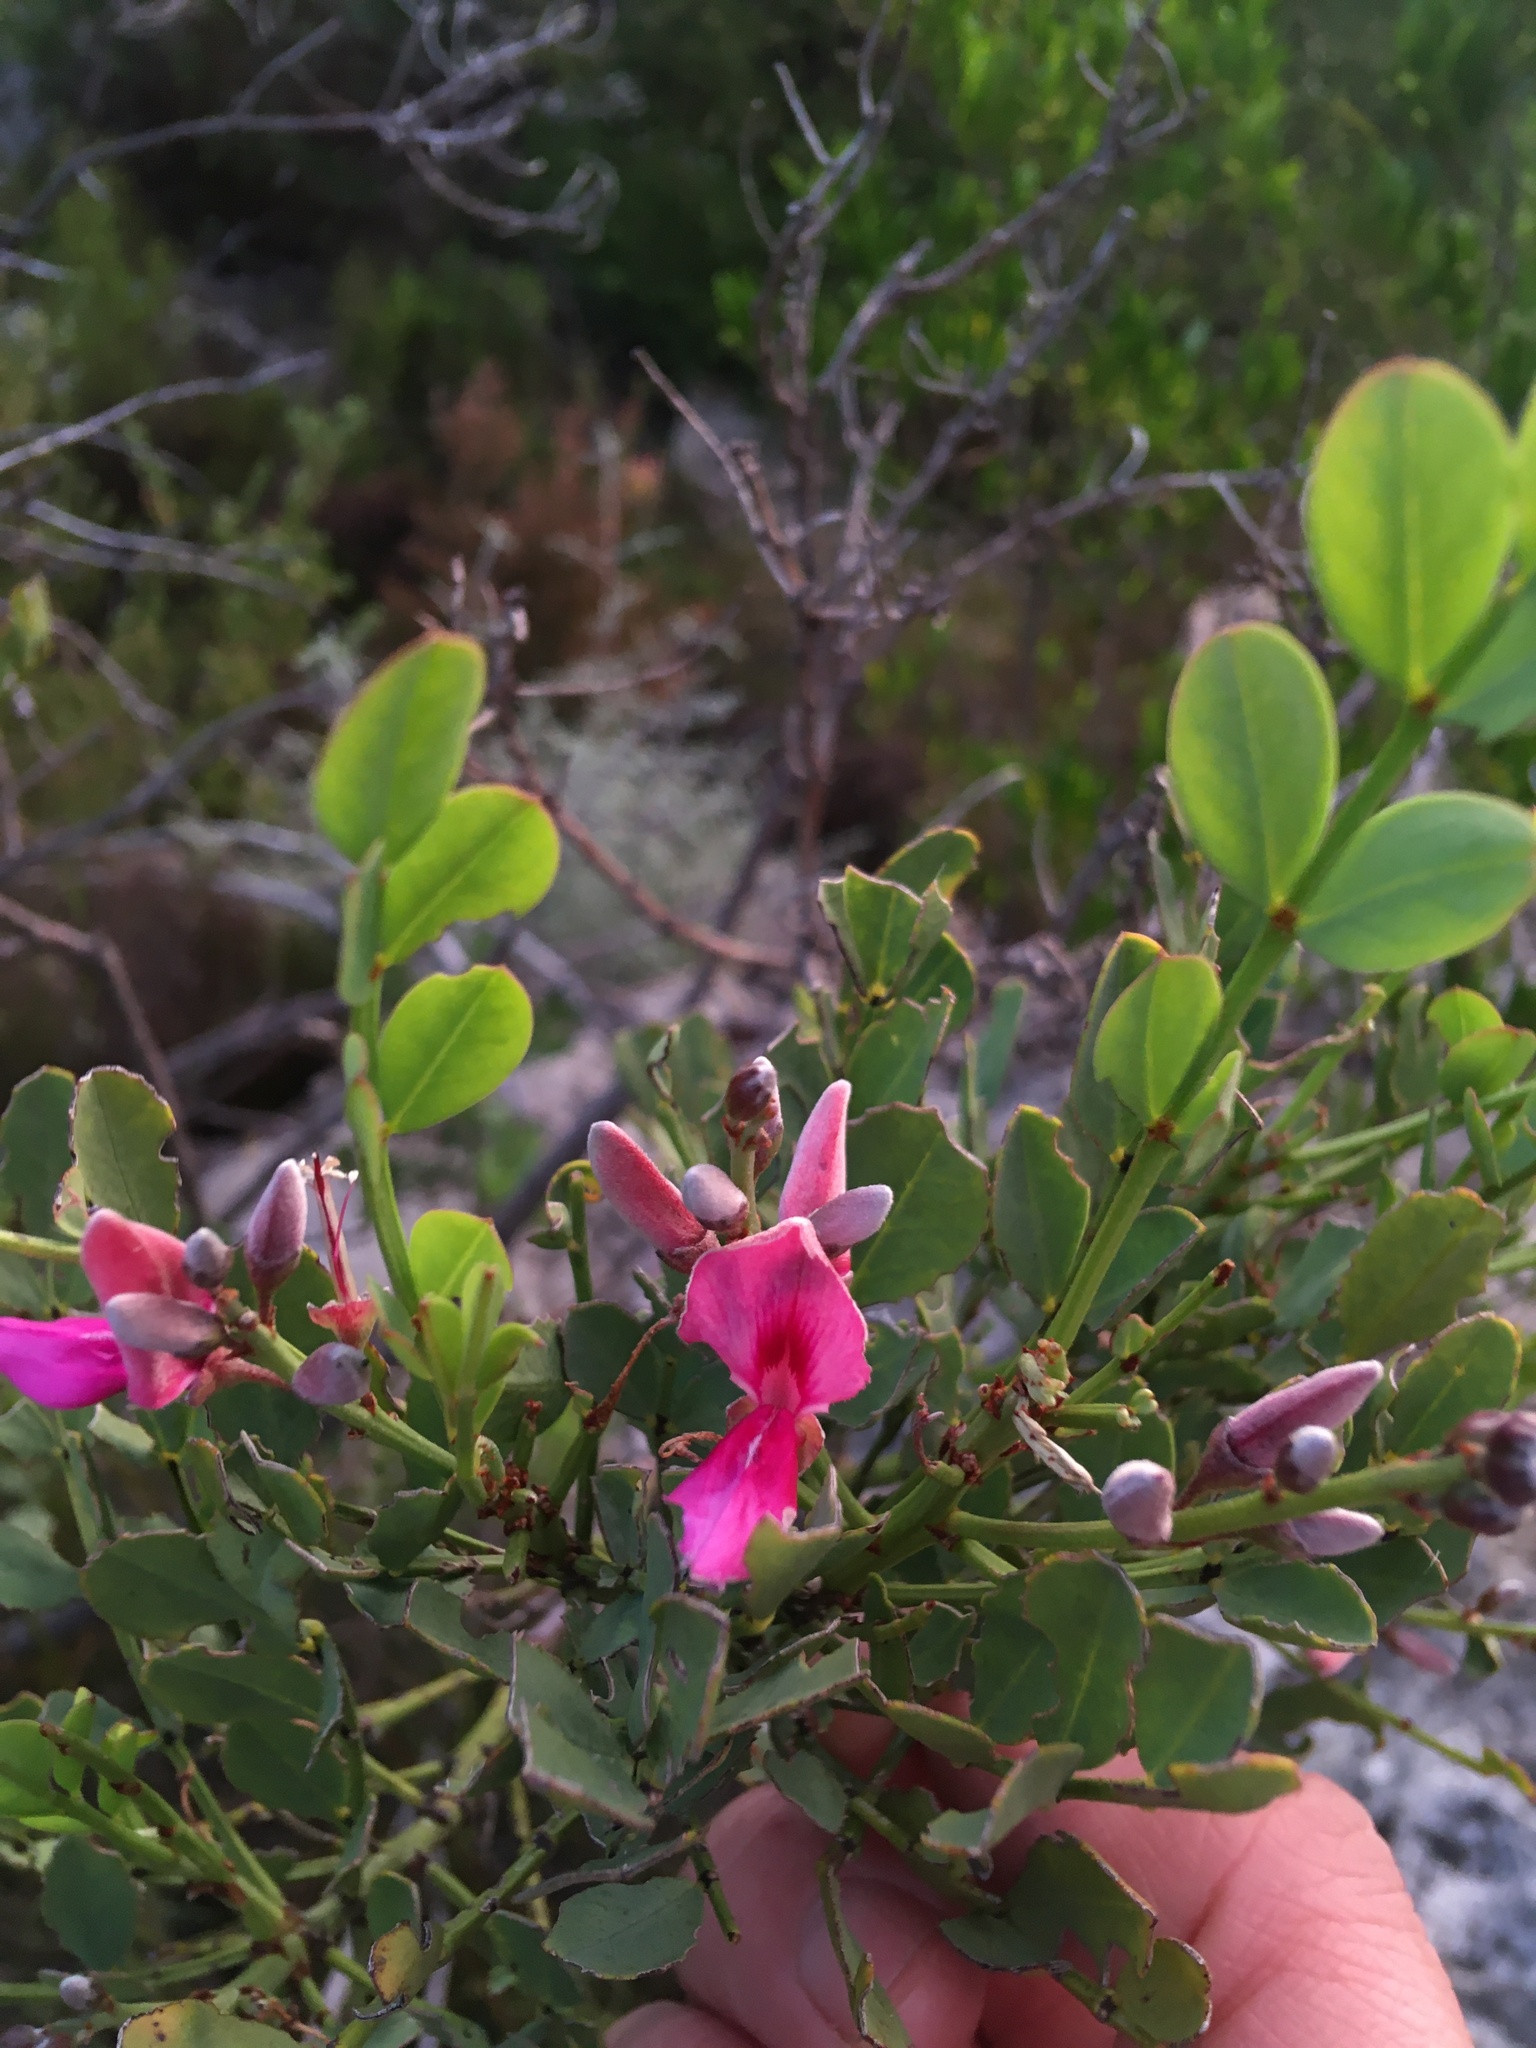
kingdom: Plantae
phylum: Tracheophyta
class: Magnoliopsida
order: Fabales
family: Fabaceae
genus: Indigofera
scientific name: Indigofera frutescens
